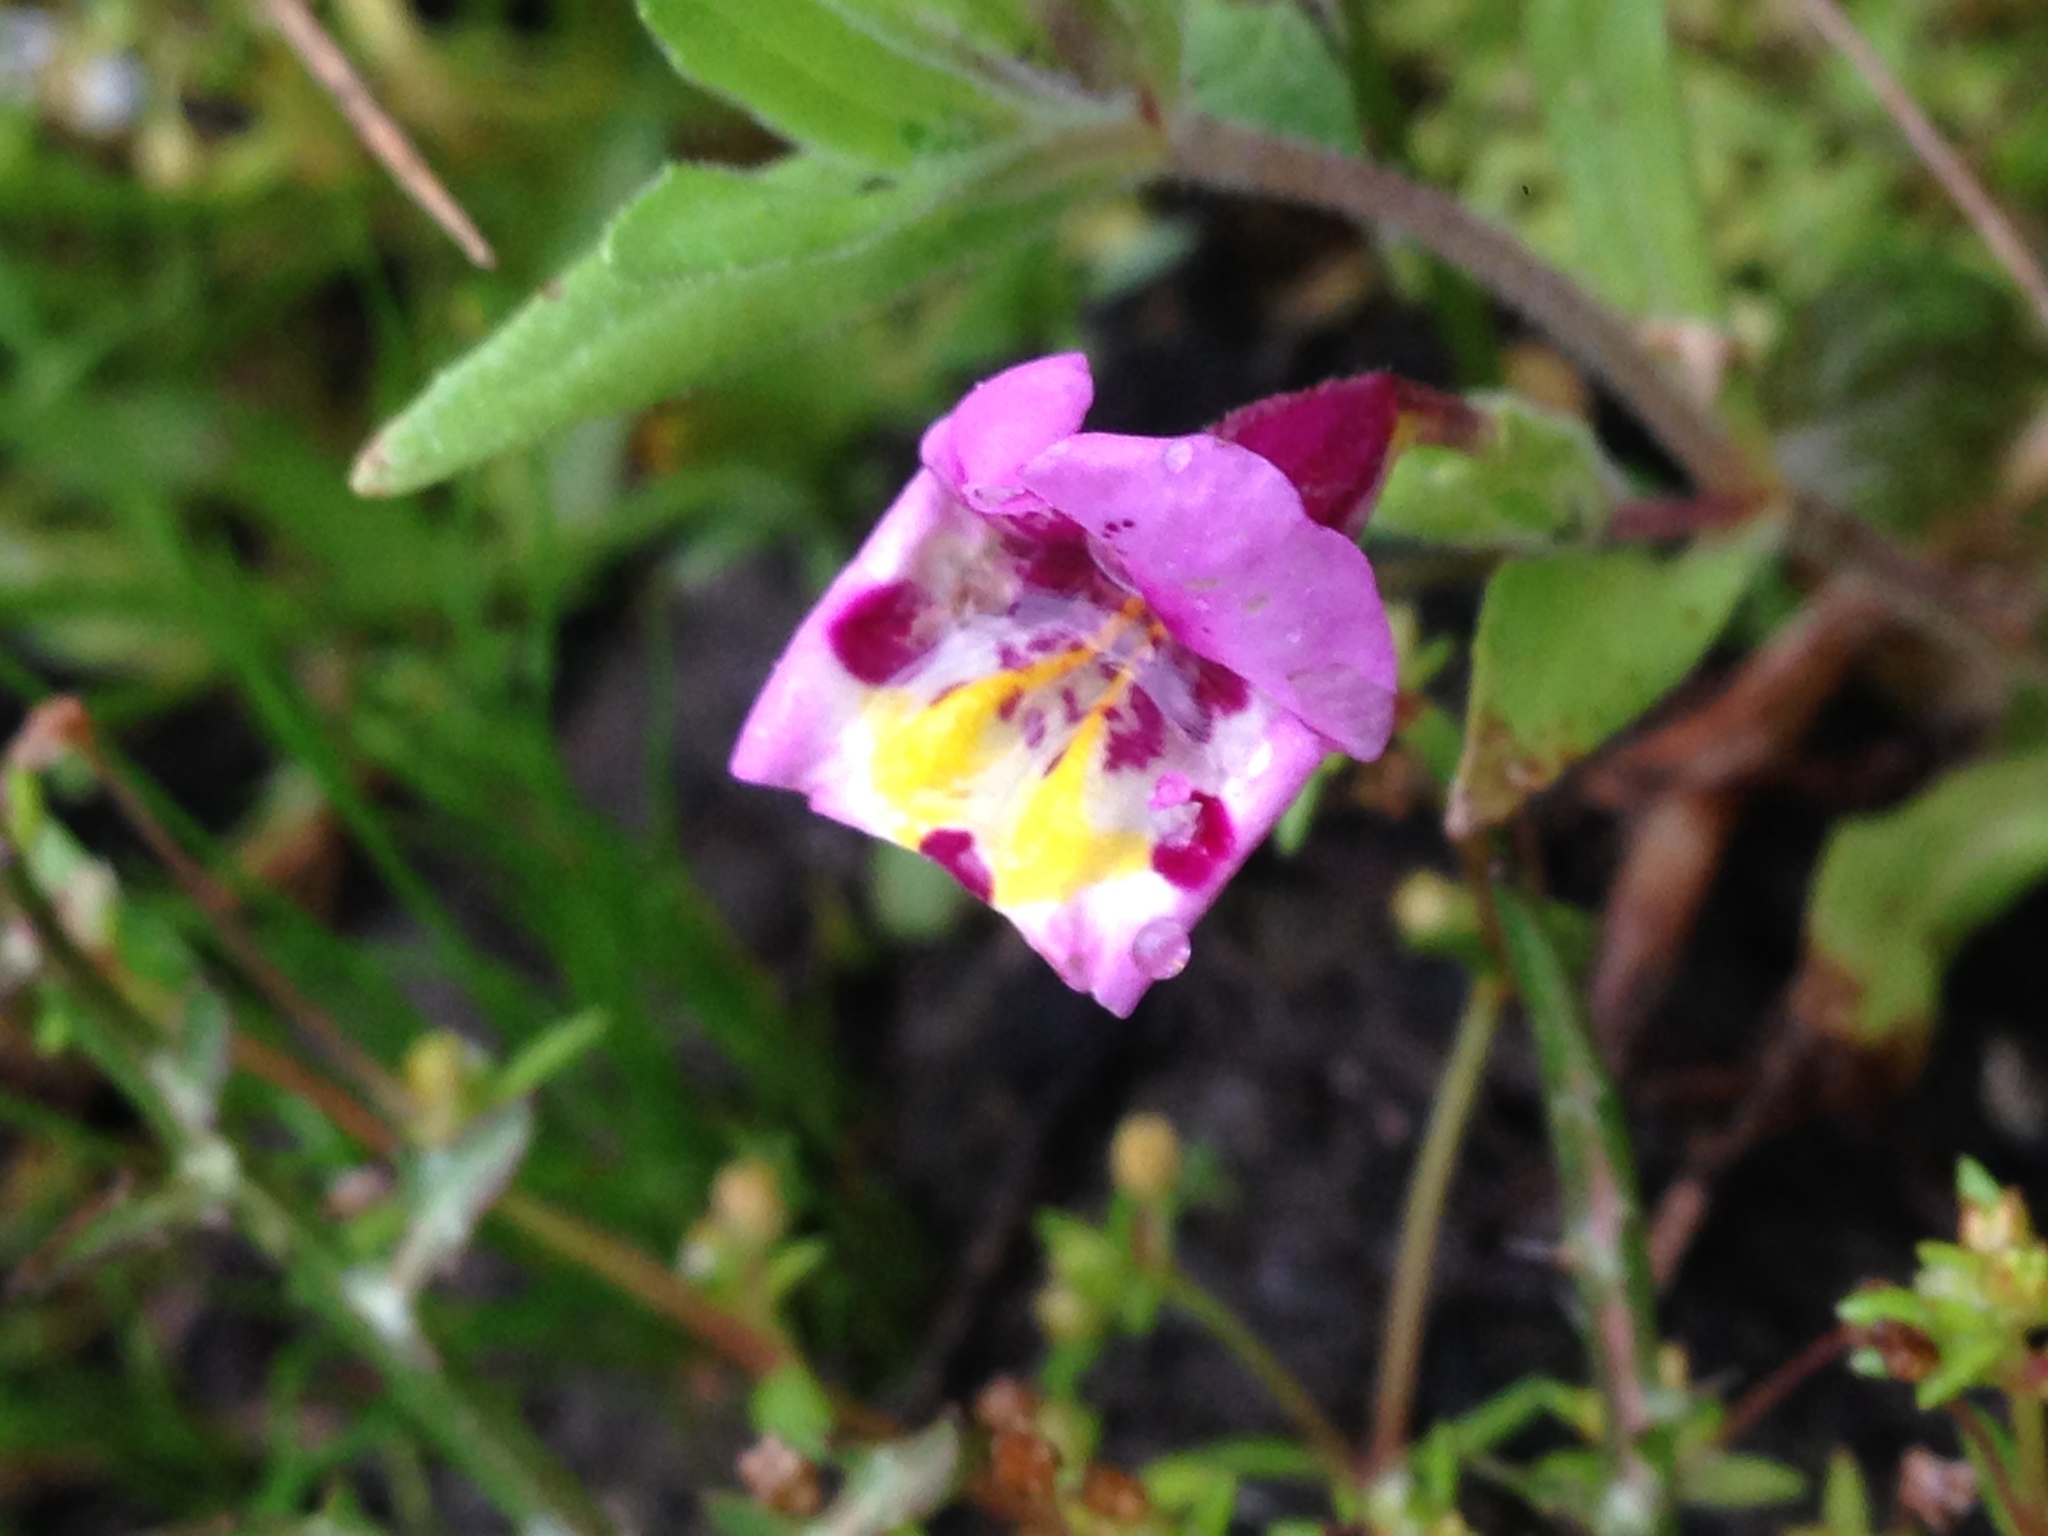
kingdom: Plantae
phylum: Tracheophyta
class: Magnoliopsida
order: Lamiales
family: Phrymaceae
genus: Diplacus
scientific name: Diplacus tricolor
